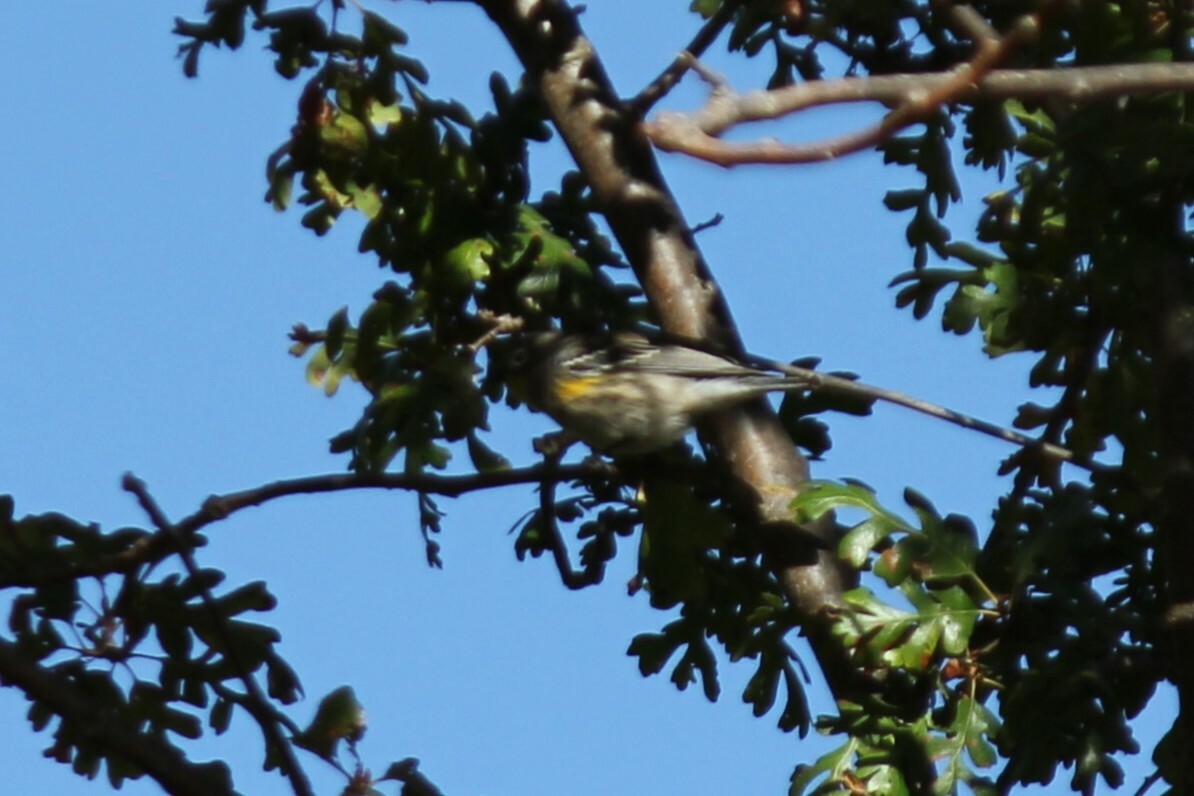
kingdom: Animalia
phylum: Chordata
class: Aves
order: Passeriformes
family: Parulidae
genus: Setophaga
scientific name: Setophaga coronata
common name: Myrtle warbler
